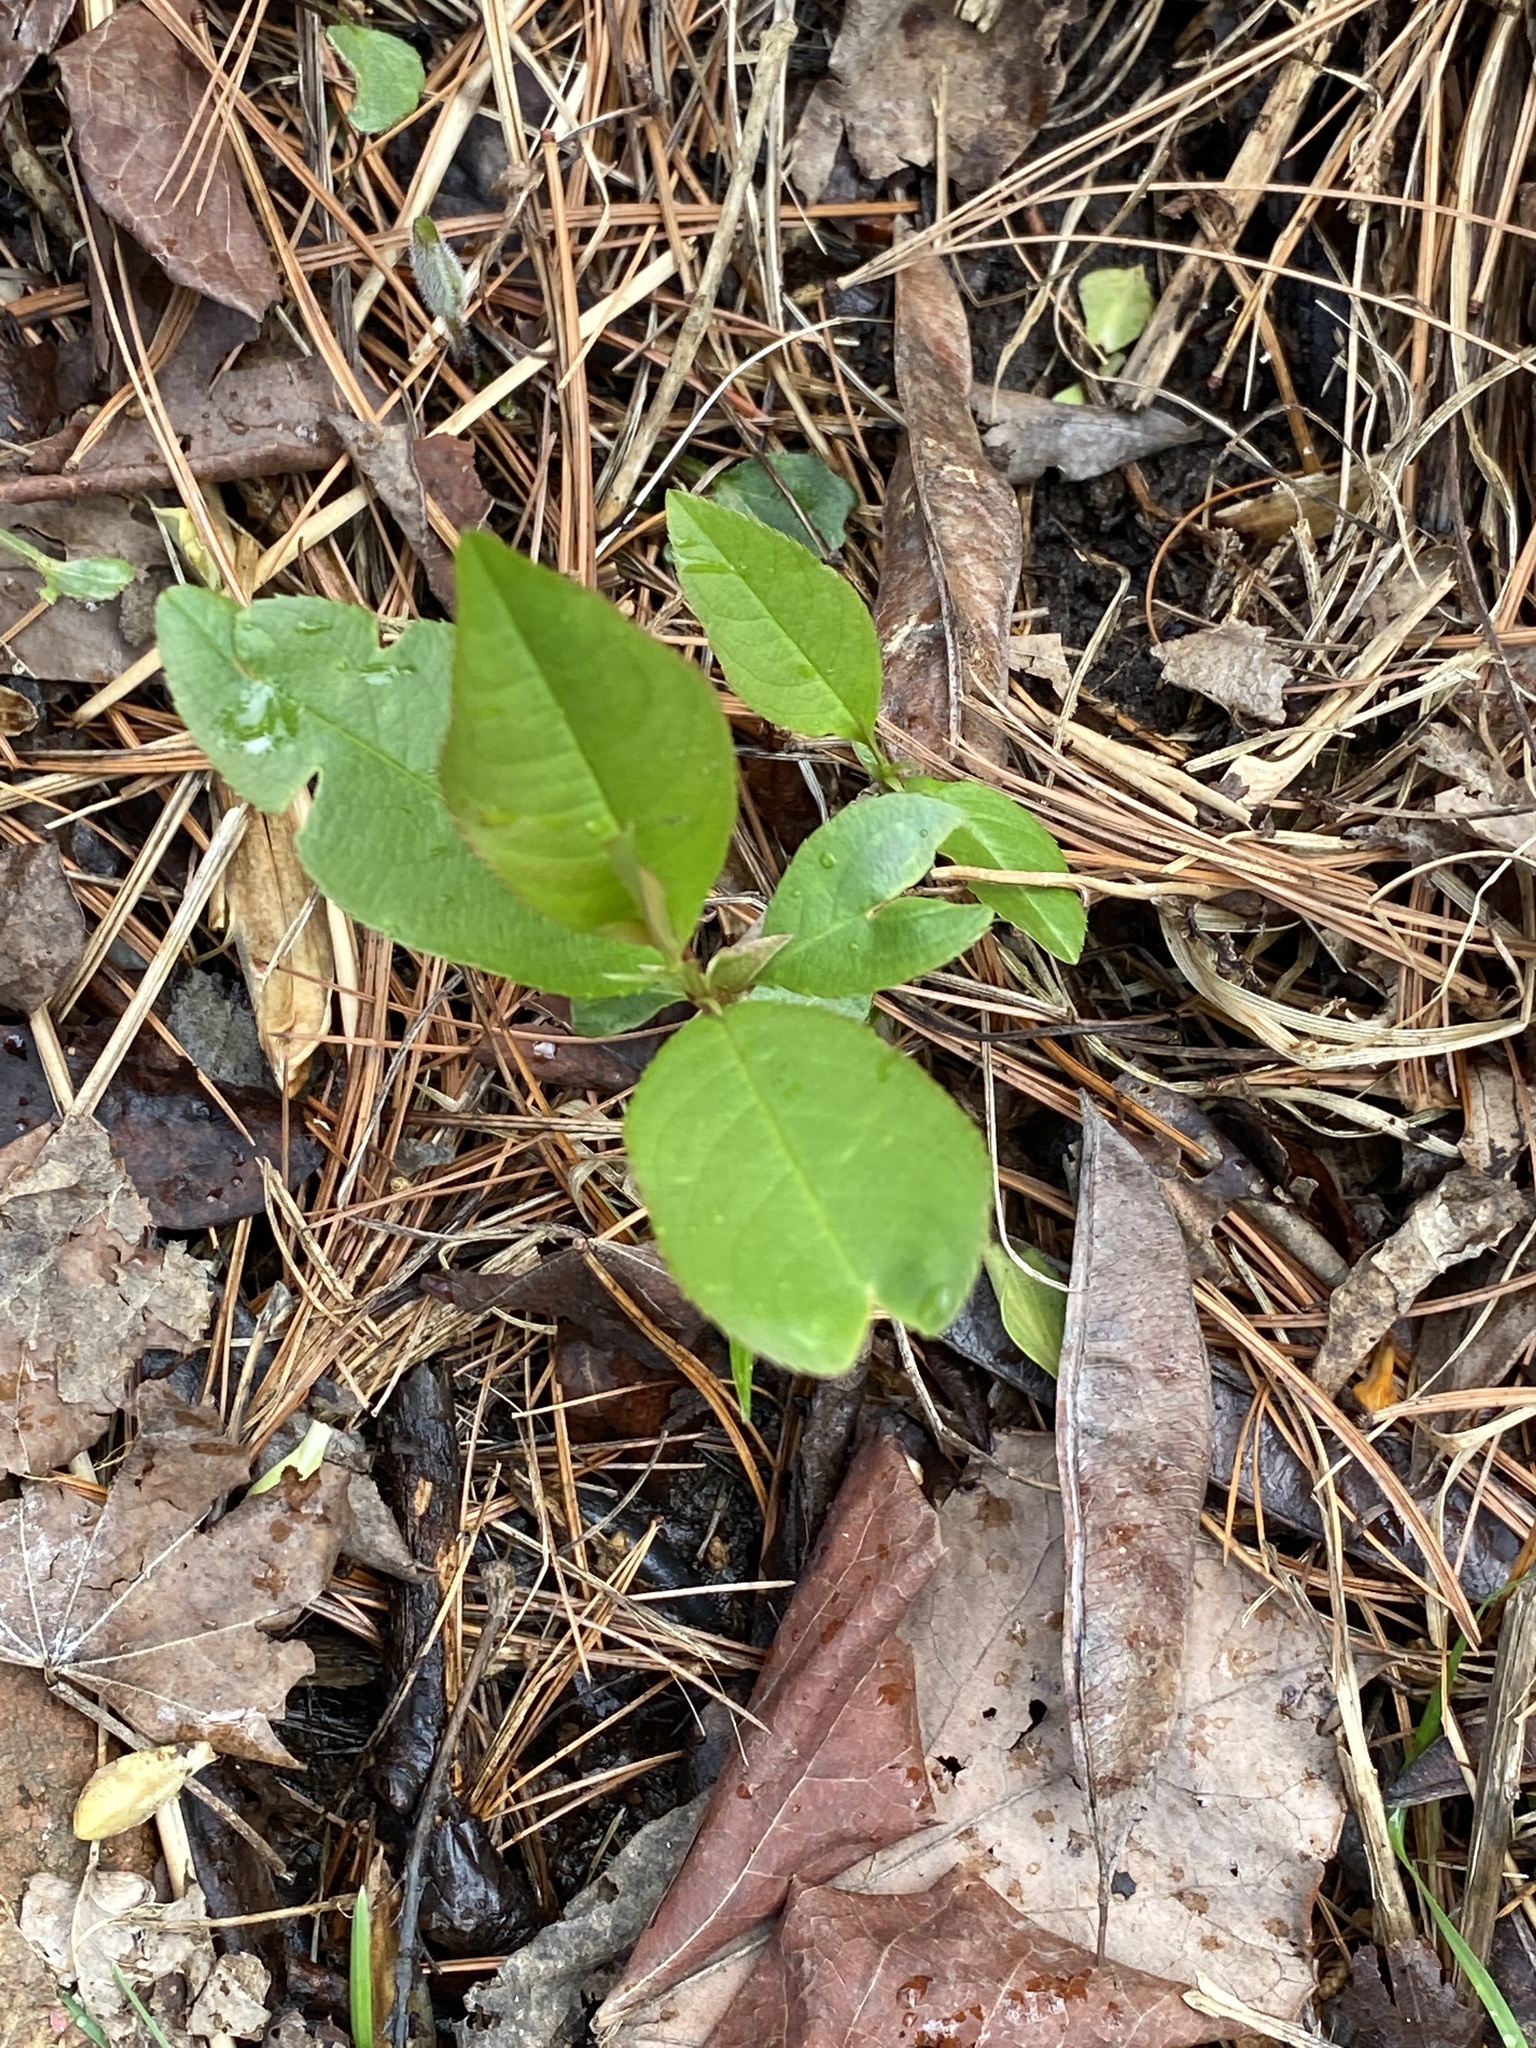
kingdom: Plantae
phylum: Tracheophyta
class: Magnoliopsida
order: Rosales
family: Rosaceae
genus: Prunus
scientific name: Prunus serotina
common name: Black cherry
